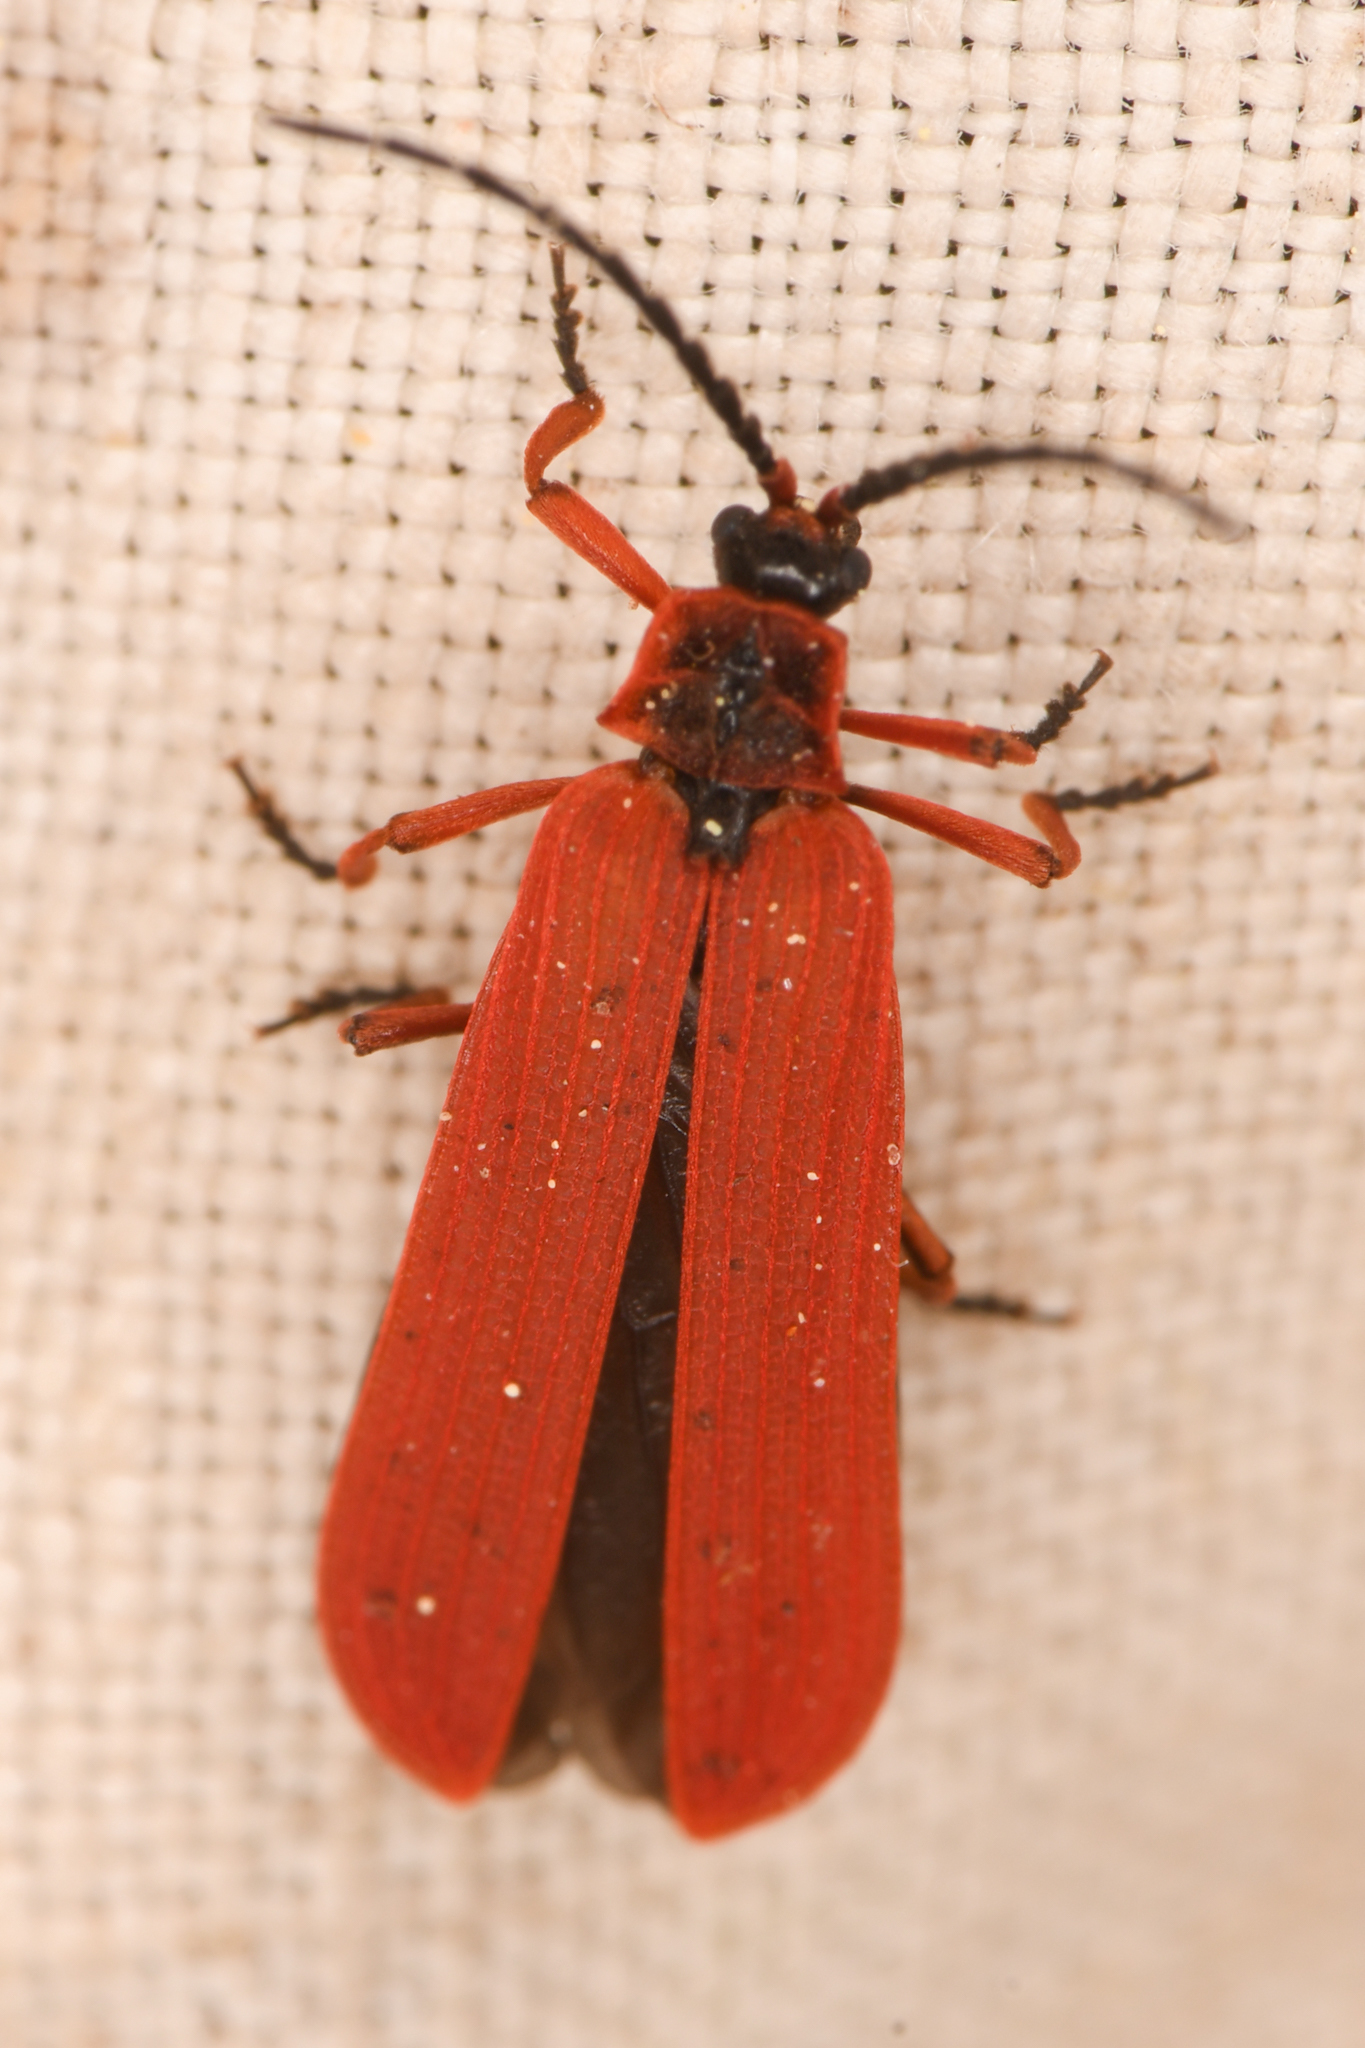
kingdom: Animalia
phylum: Arthropoda
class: Insecta
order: Coleoptera
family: Lycidae
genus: Dictyoptera
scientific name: Dictyoptera simplicipes
